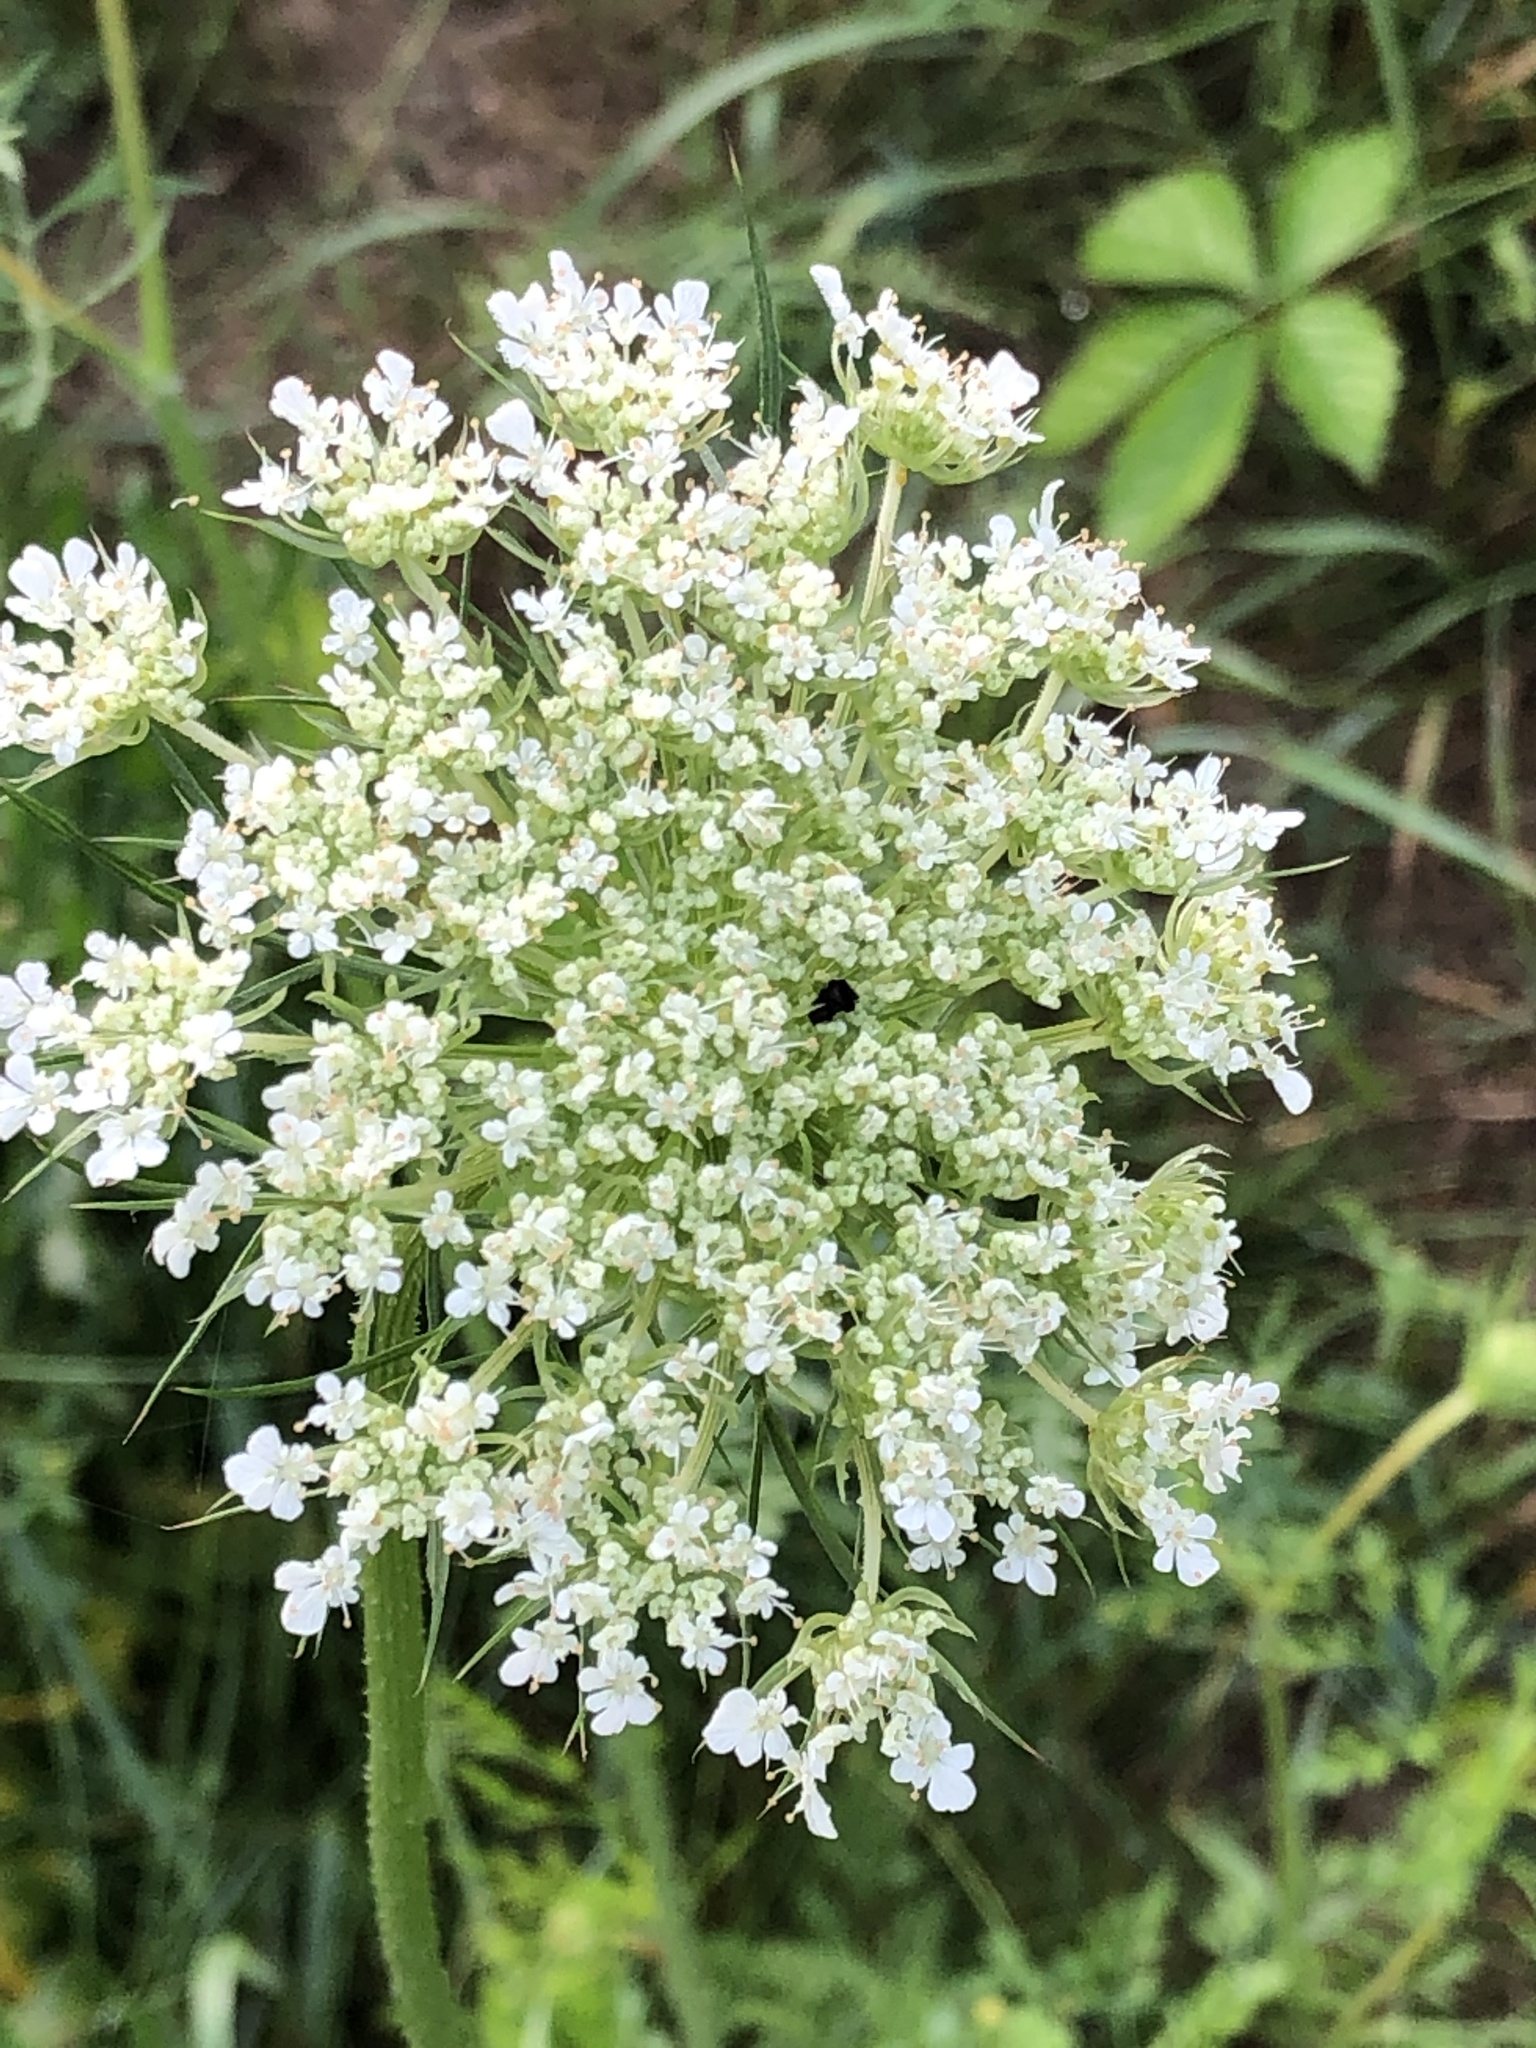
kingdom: Plantae
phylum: Tracheophyta
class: Magnoliopsida
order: Apiales
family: Apiaceae
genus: Daucus
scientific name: Daucus carota
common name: Wild carrot
